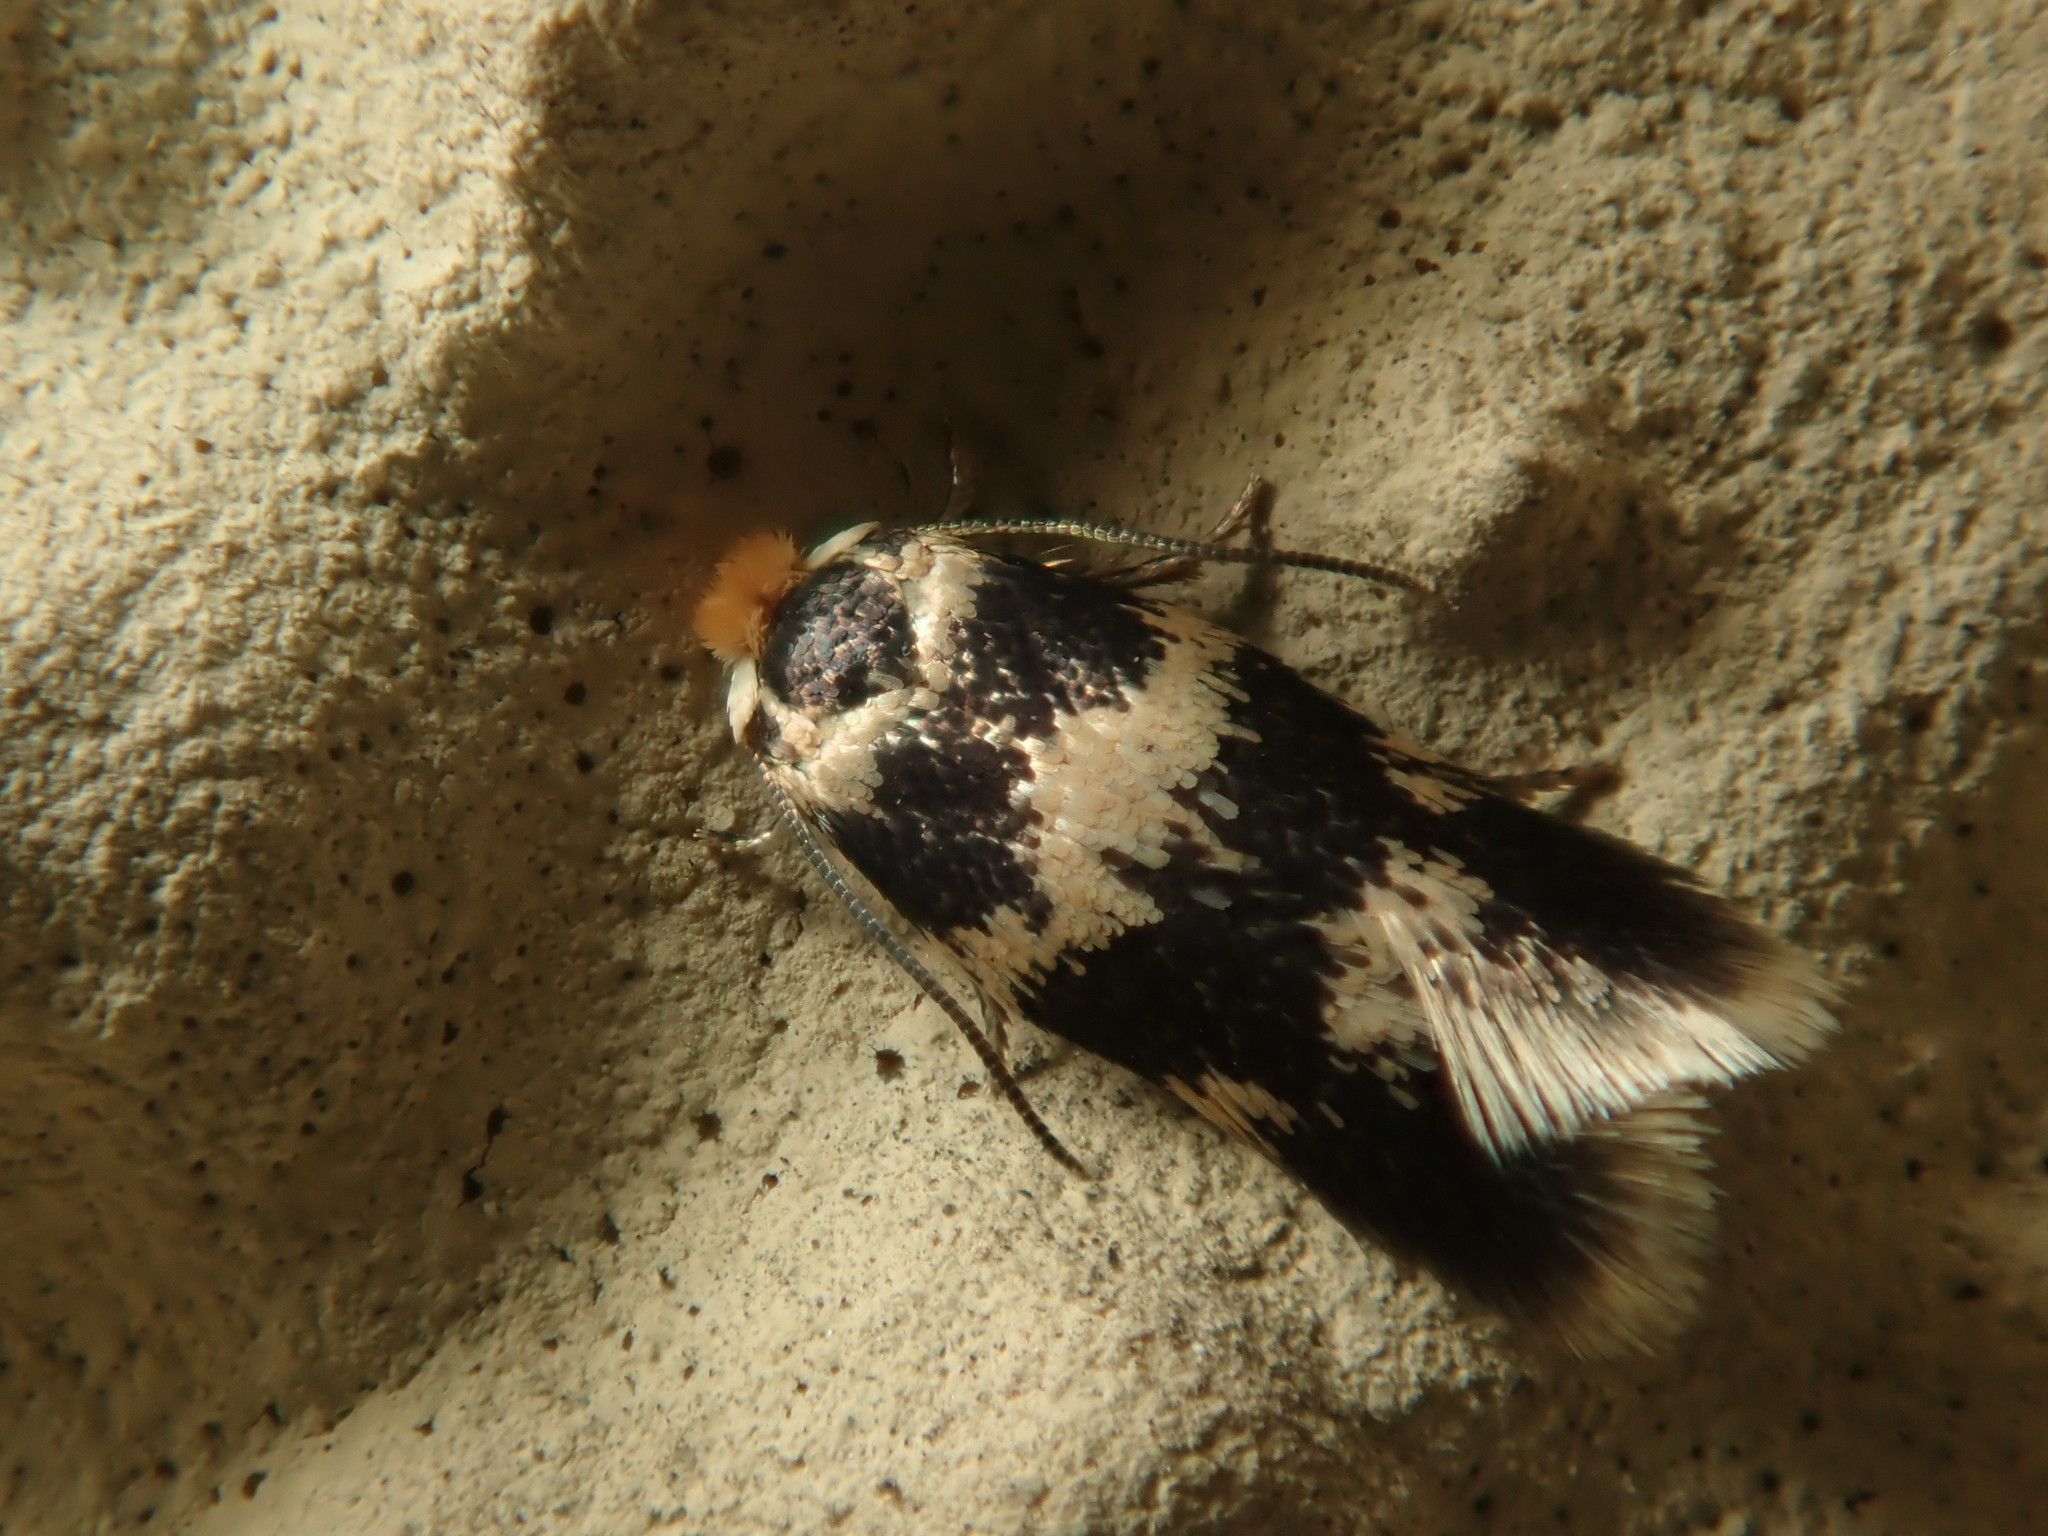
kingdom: Animalia
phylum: Arthropoda
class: Insecta
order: Lepidoptera
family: Nepticulidae
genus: Etainia
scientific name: Etainia sericopeza
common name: Leafminer
